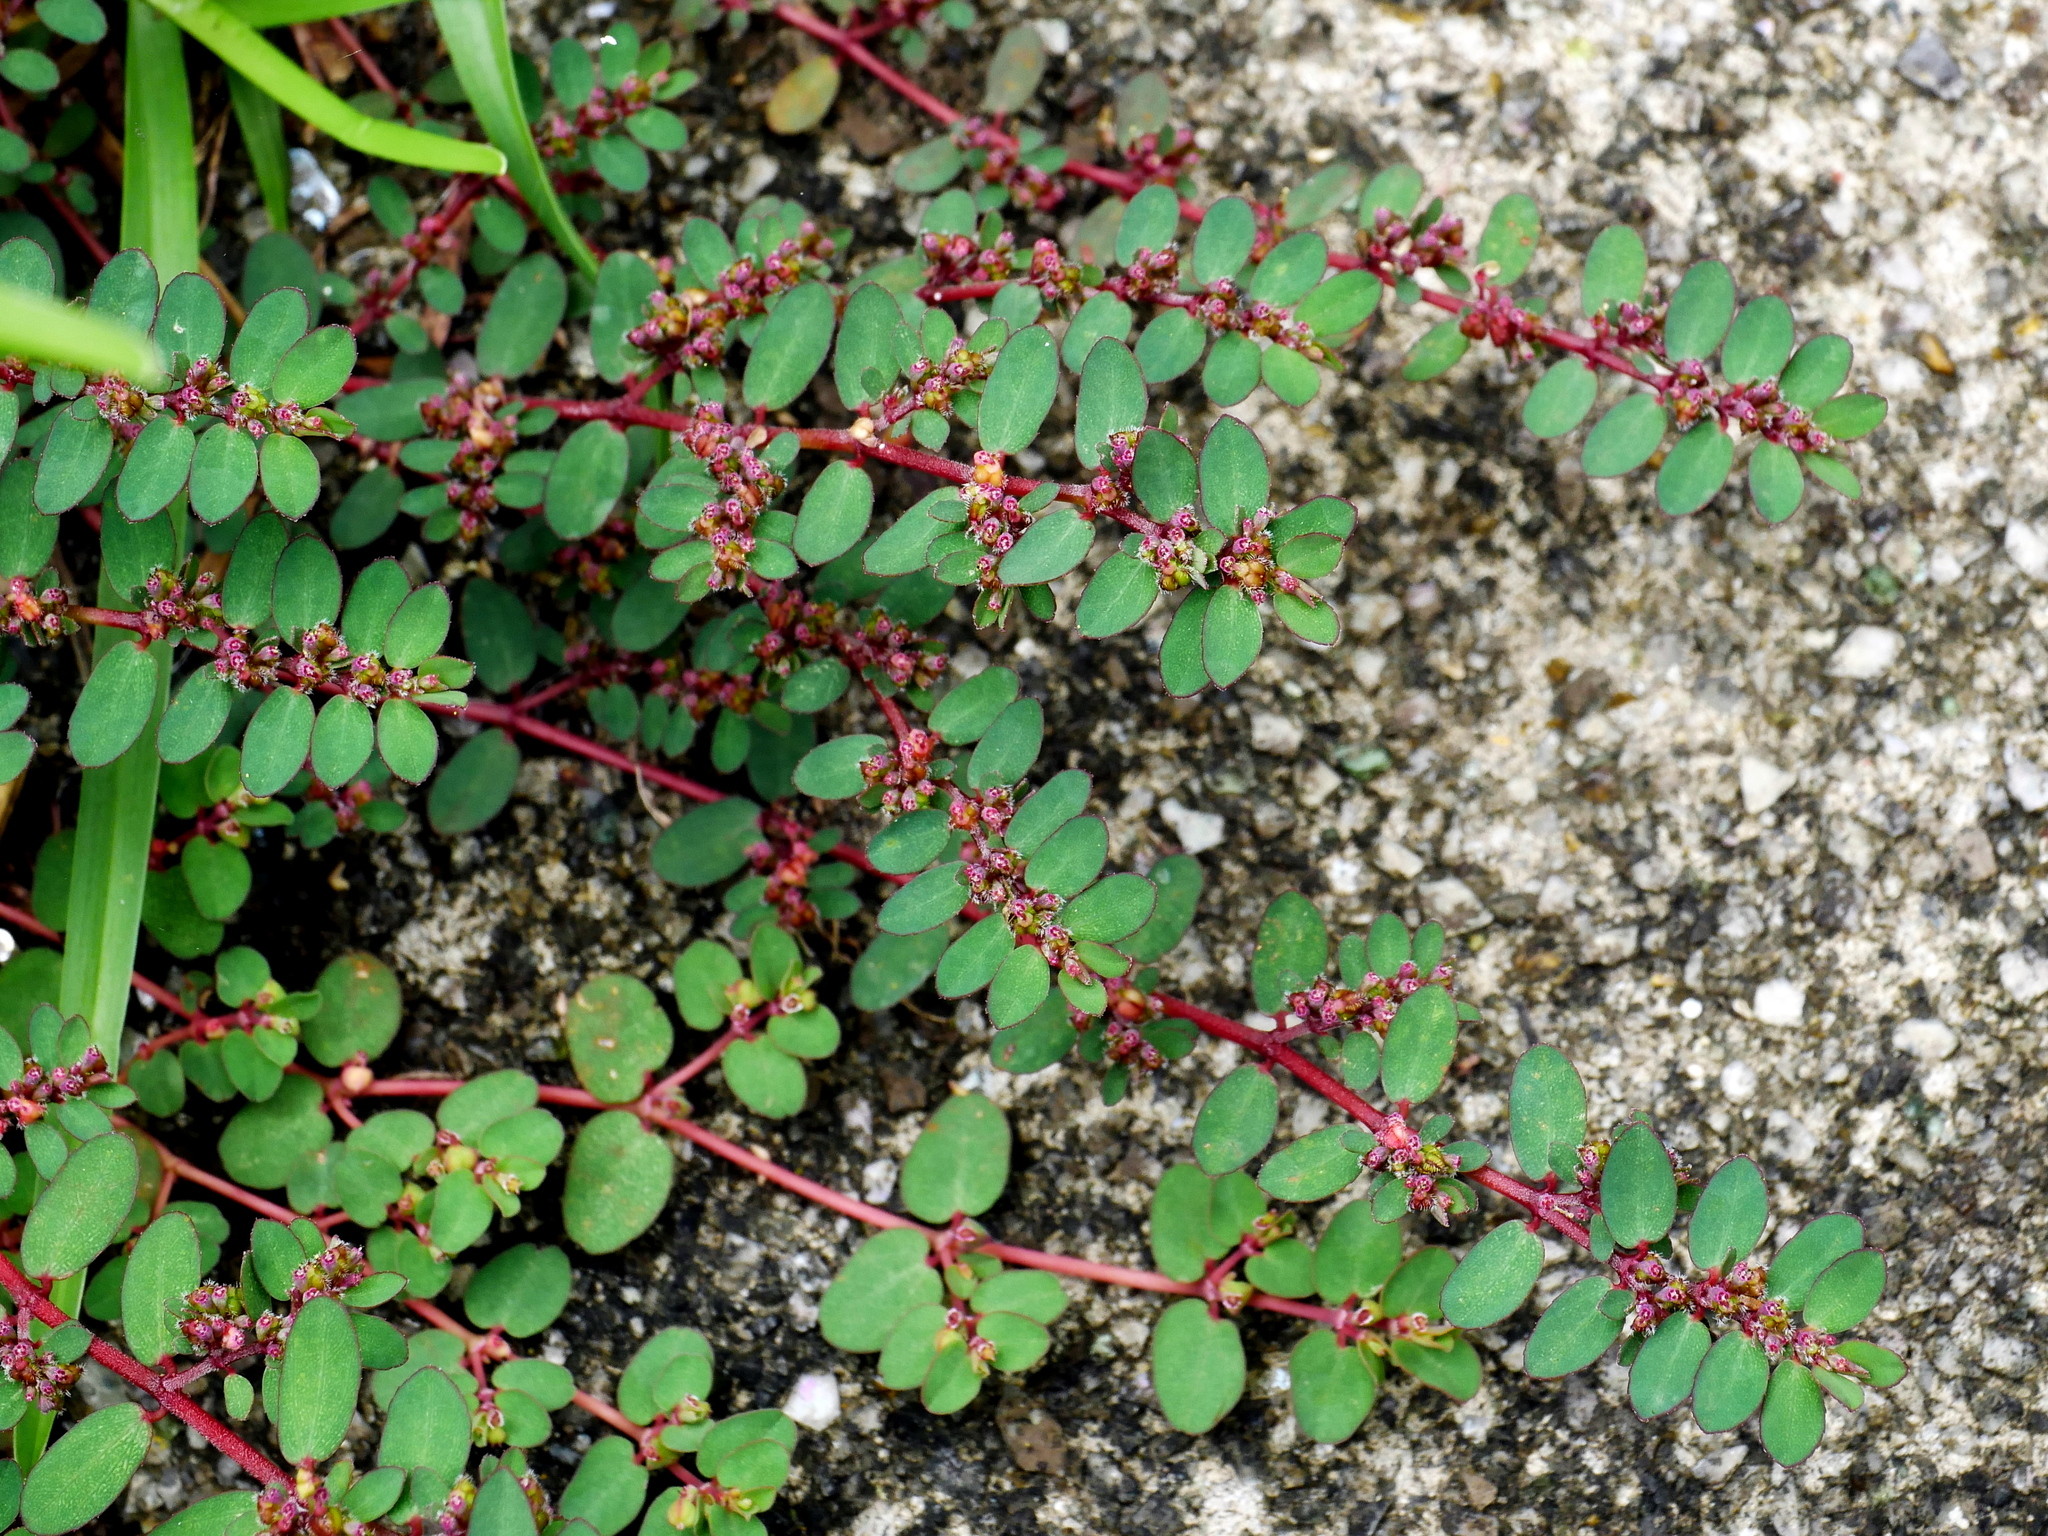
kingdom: Plantae
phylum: Tracheophyta
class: Magnoliopsida
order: Malpighiales
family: Euphorbiaceae
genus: Euphorbia
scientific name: Euphorbia prostrata
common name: Prostrate sandmat
